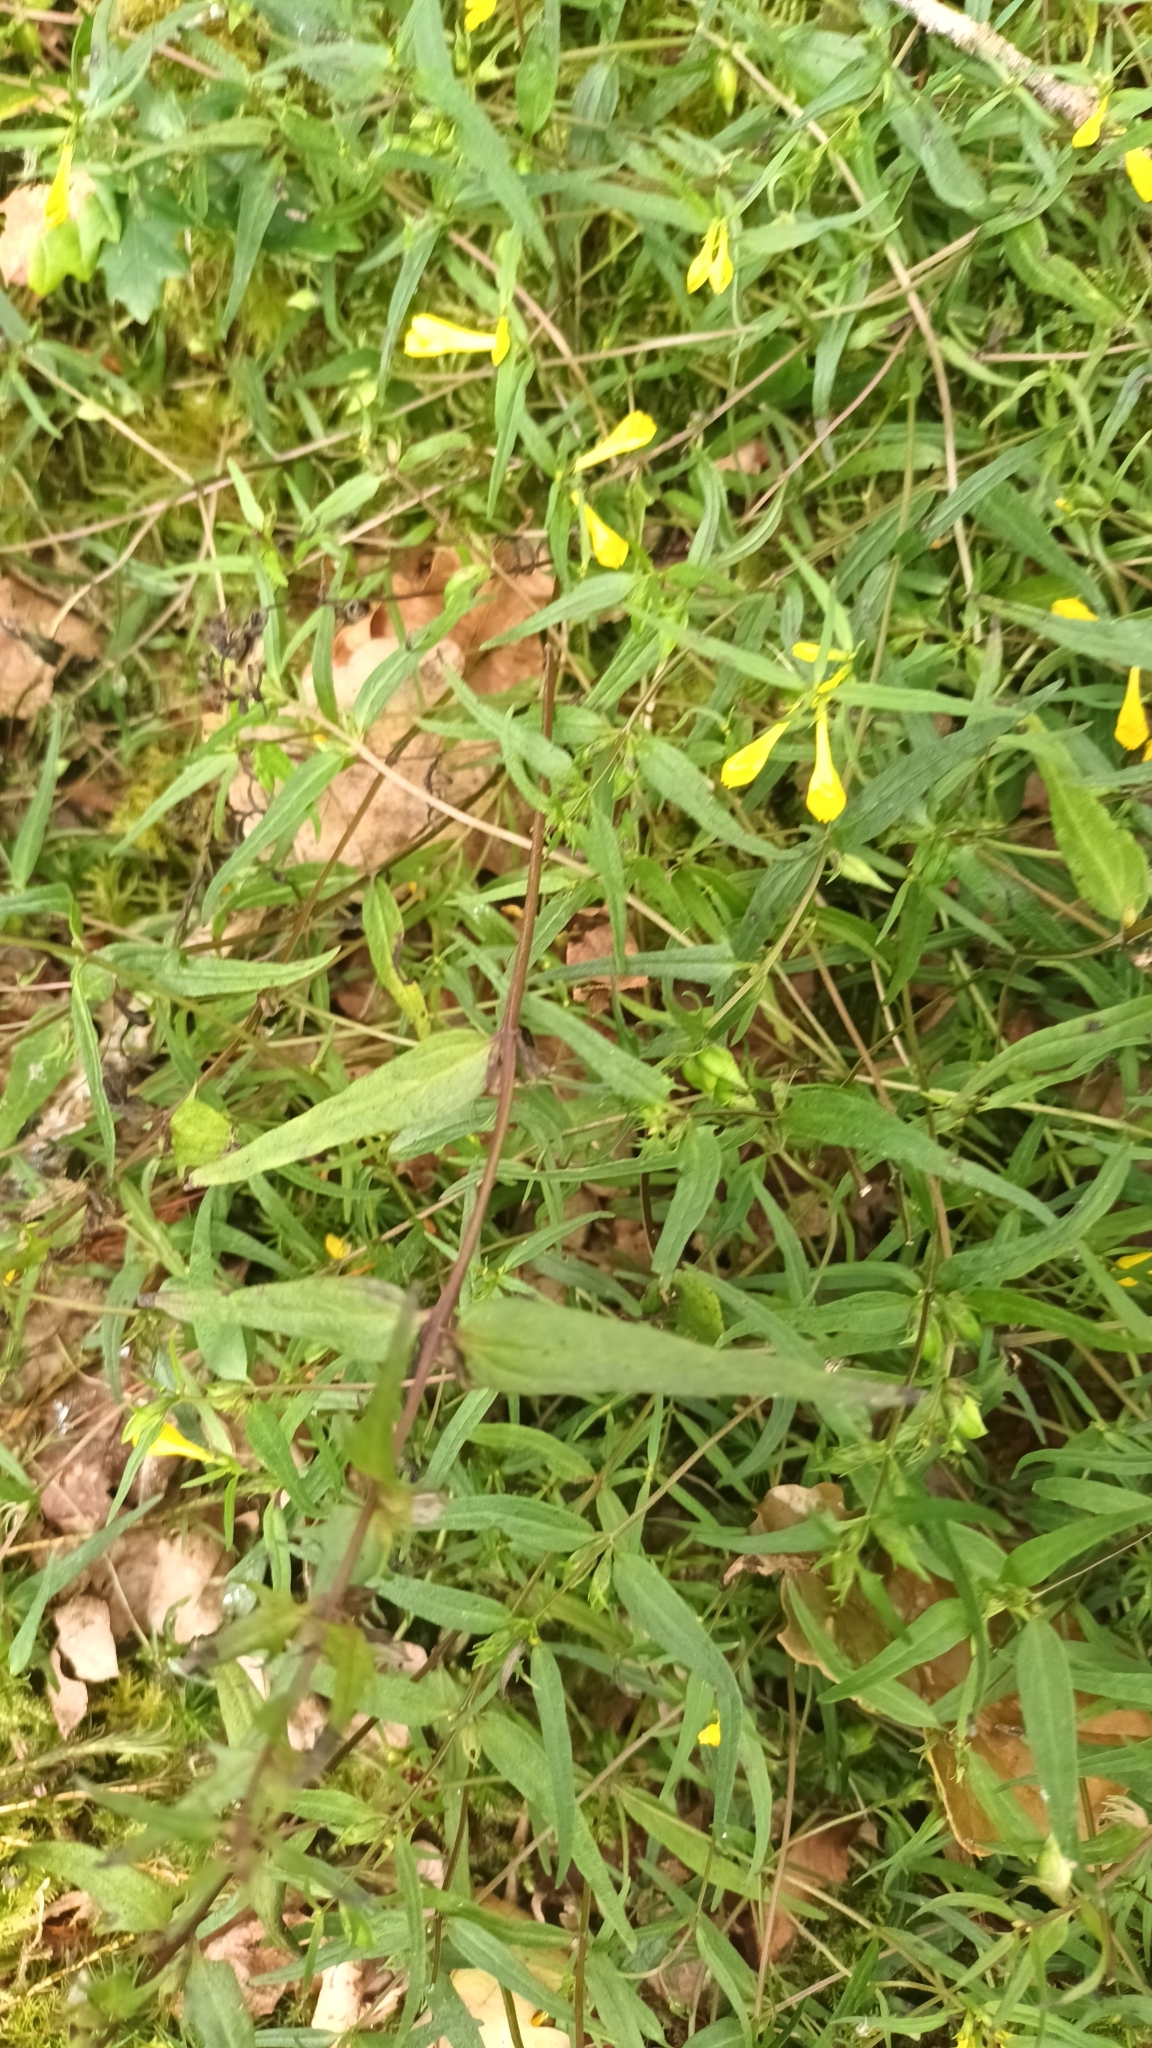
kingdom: Plantae
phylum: Tracheophyta
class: Magnoliopsida
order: Lamiales
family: Orobanchaceae
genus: Melampyrum
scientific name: Melampyrum pratense
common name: Common cow-wheat
